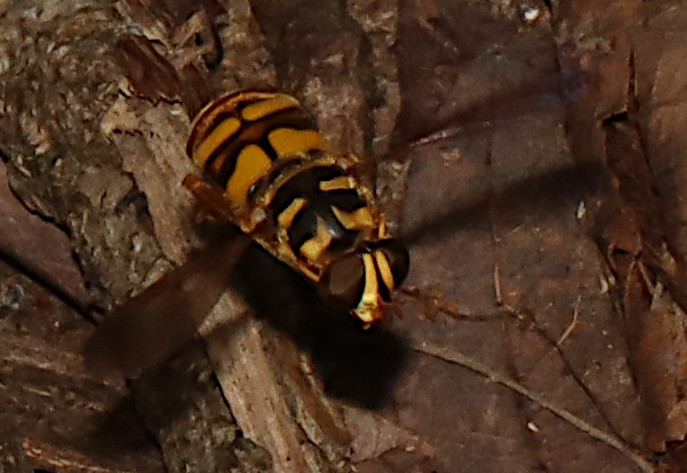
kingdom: Animalia
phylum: Arthropoda
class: Insecta
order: Diptera
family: Syrphidae
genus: Milesia
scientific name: Milesia virginiensis
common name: Virginia giant
